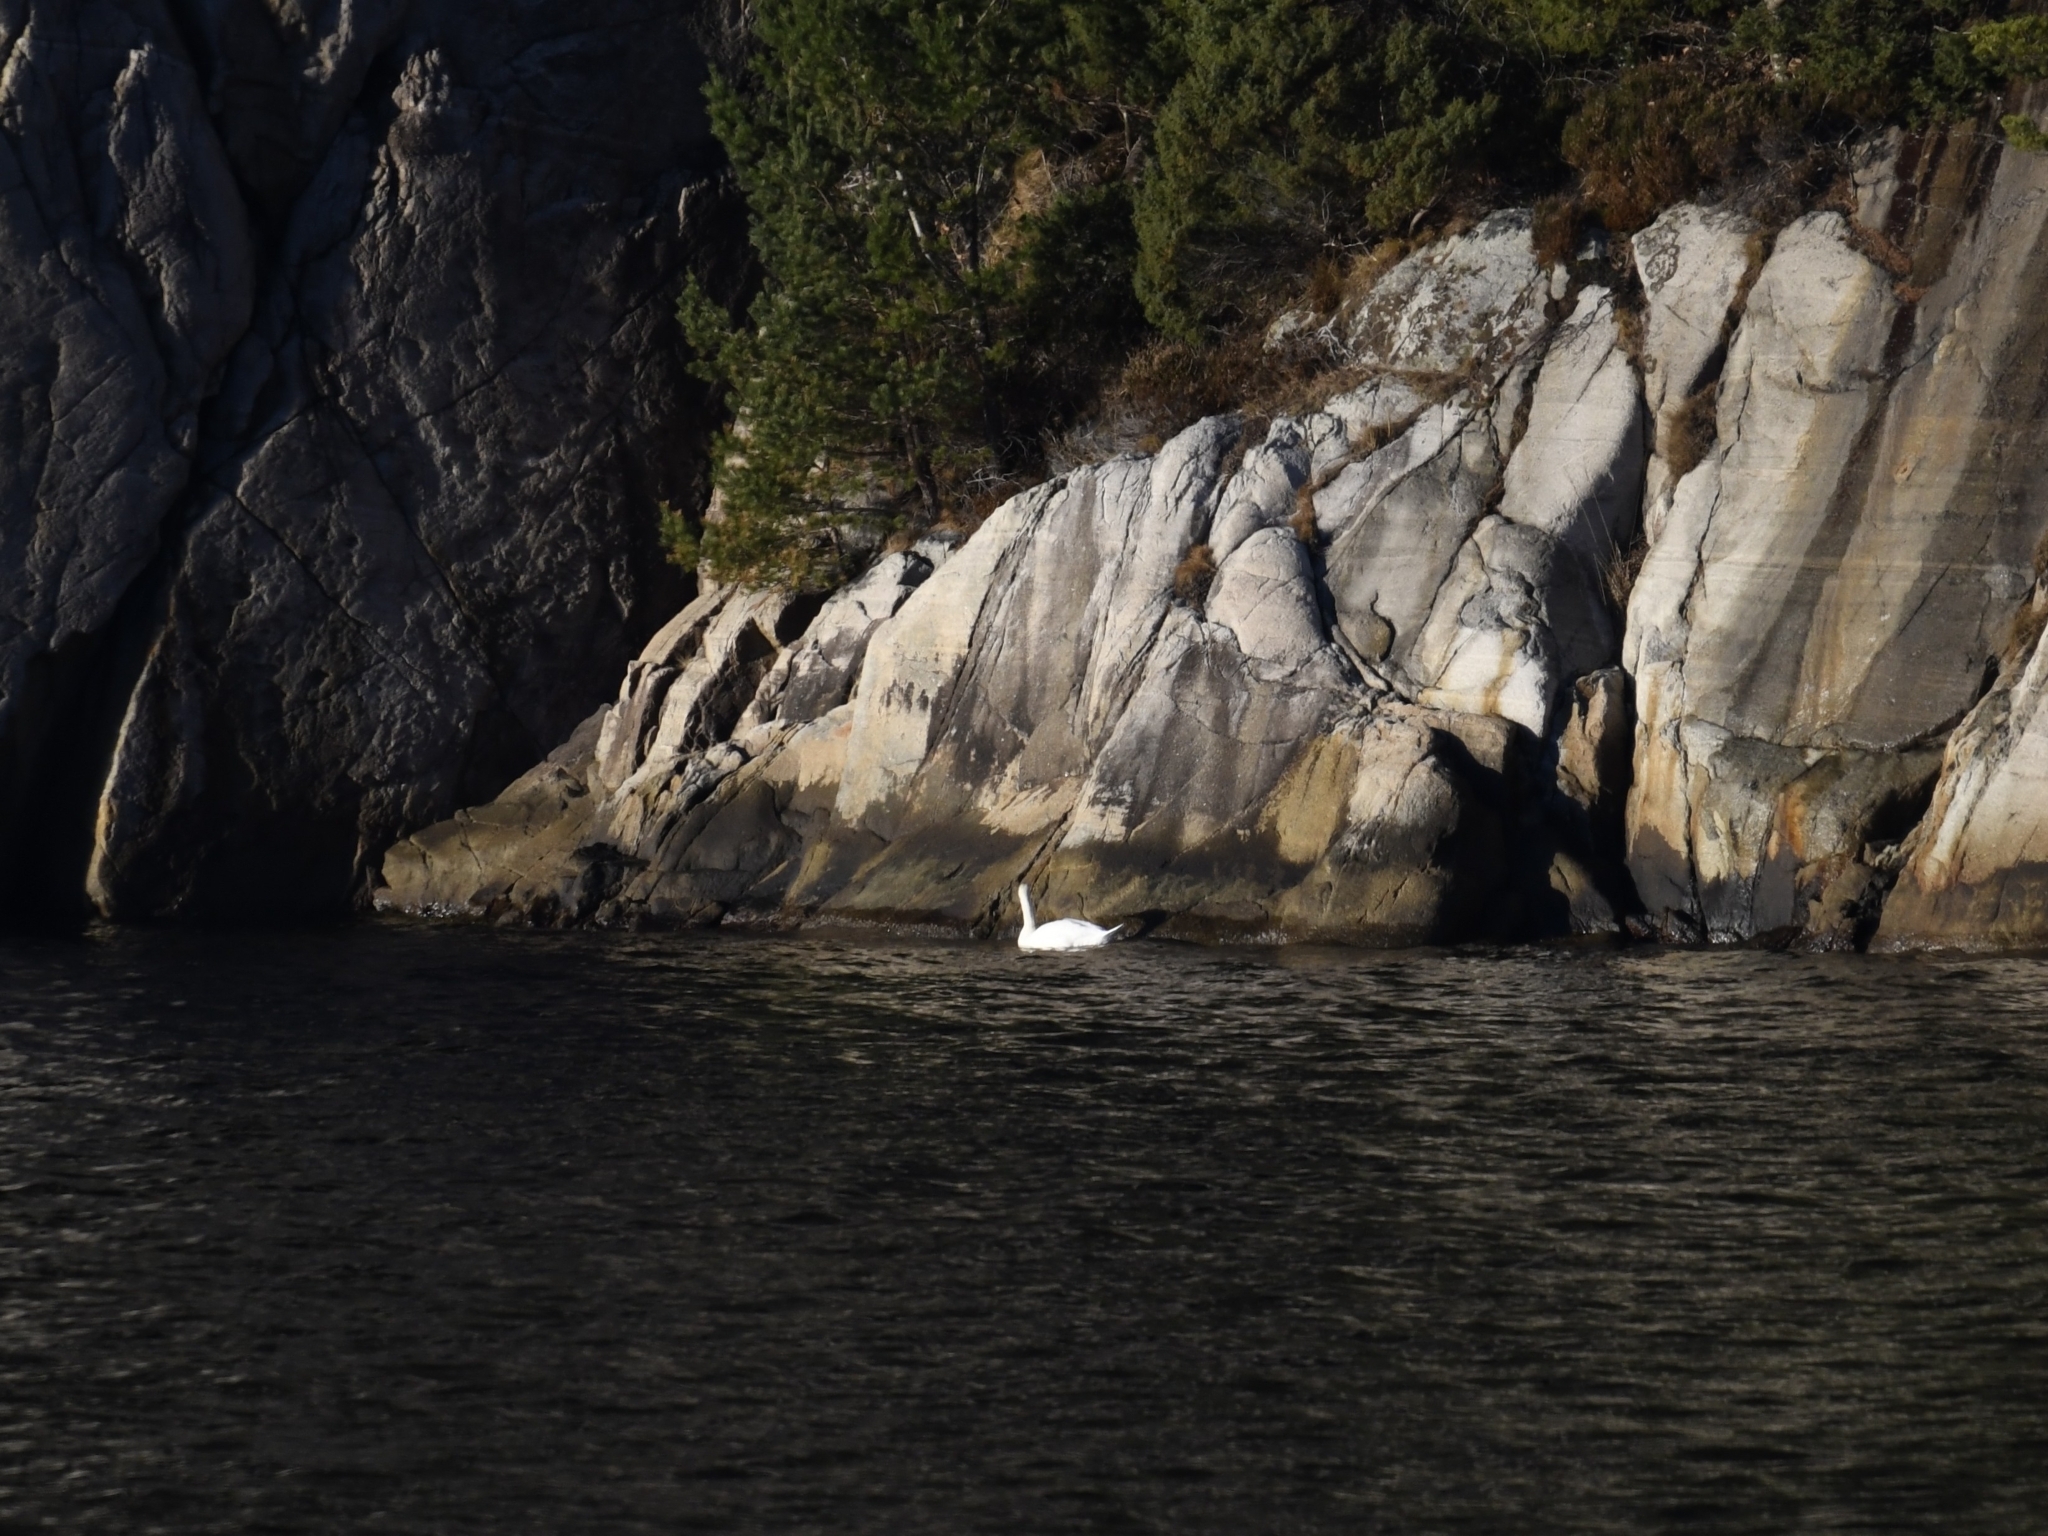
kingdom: Animalia
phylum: Chordata
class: Aves
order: Anseriformes
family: Anatidae
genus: Cygnus
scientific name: Cygnus olor
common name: Mute swan
